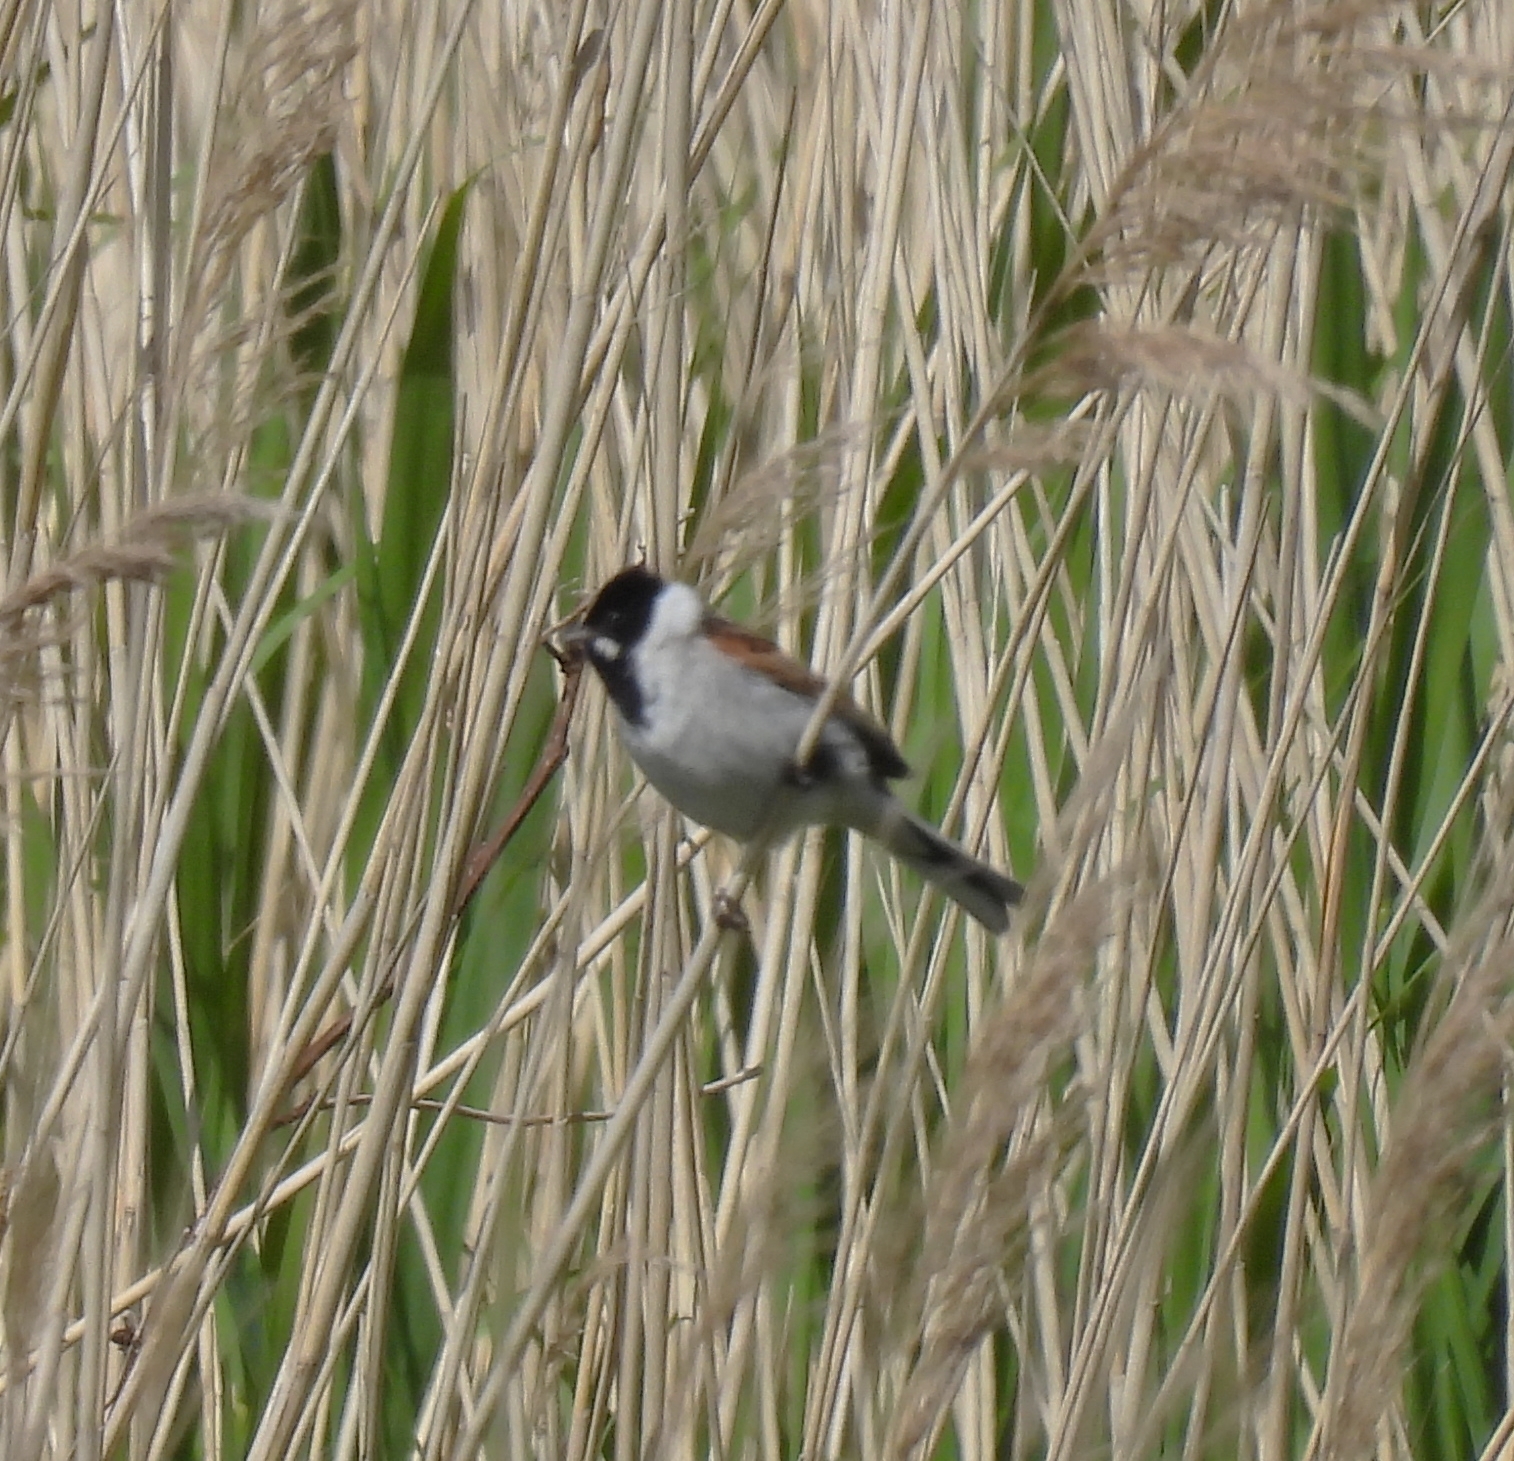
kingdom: Animalia
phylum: Chordata
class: Aves
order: Passeriformes
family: Emberizidae
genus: Emberiza
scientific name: Emberiza schoeniclus
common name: Reed bunting
